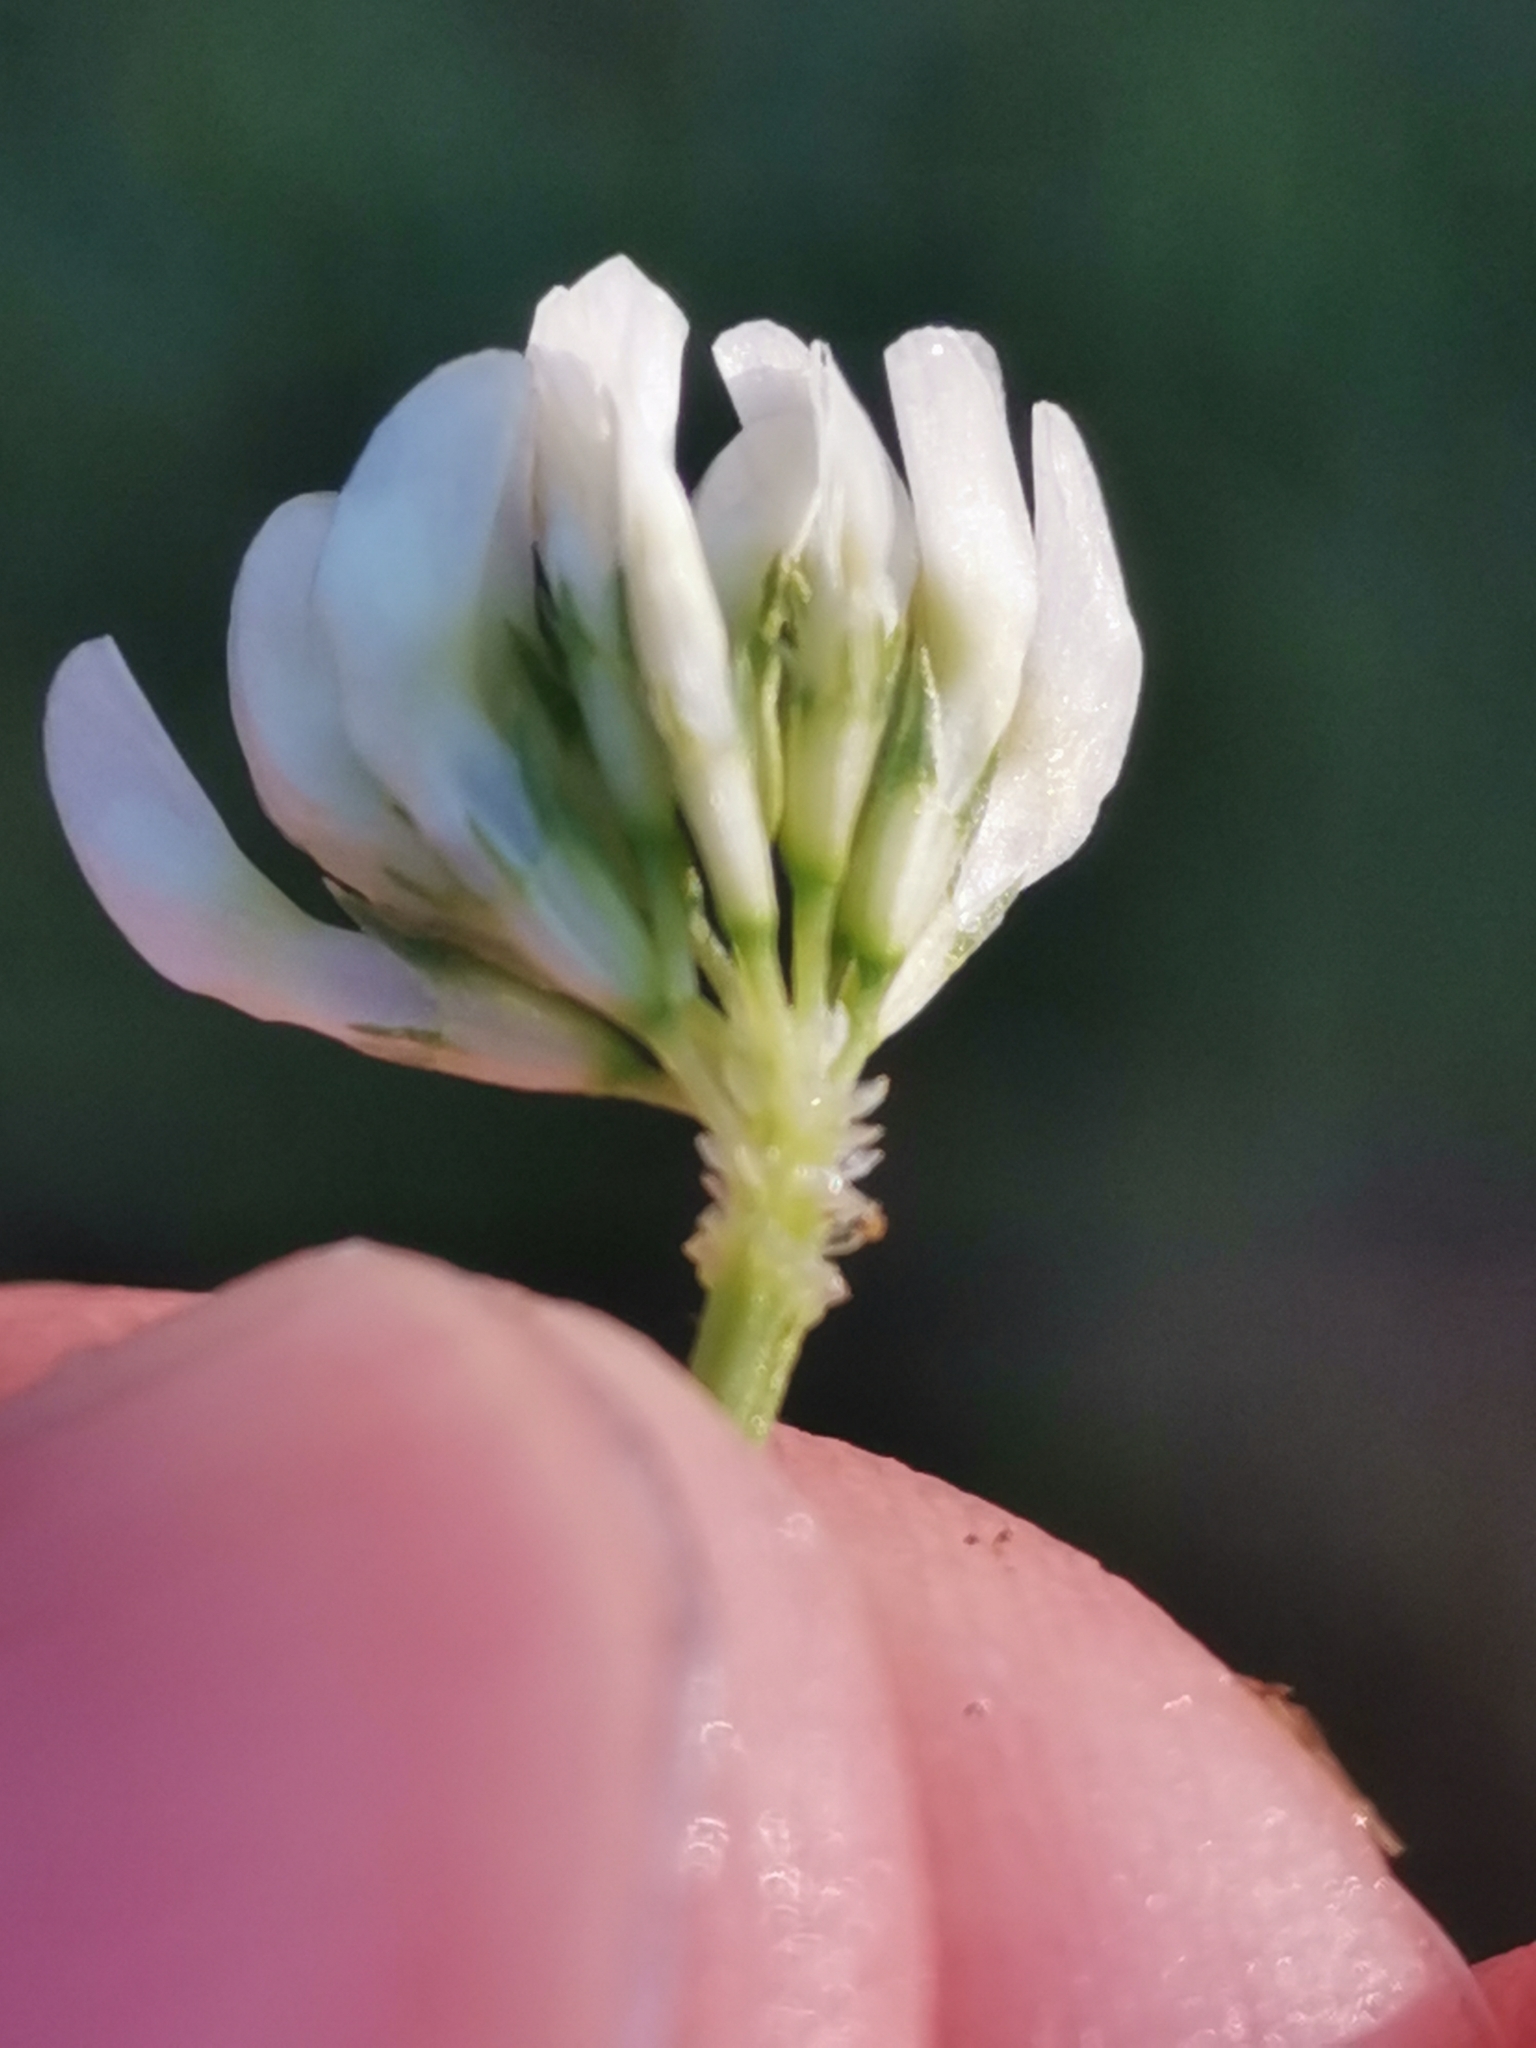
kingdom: Plantae
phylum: Tracheophyta
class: Magnoliopsida
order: Fabales
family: Fabaceae
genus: Trifolium
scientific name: Trifolium nigrescens
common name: Small white clover
